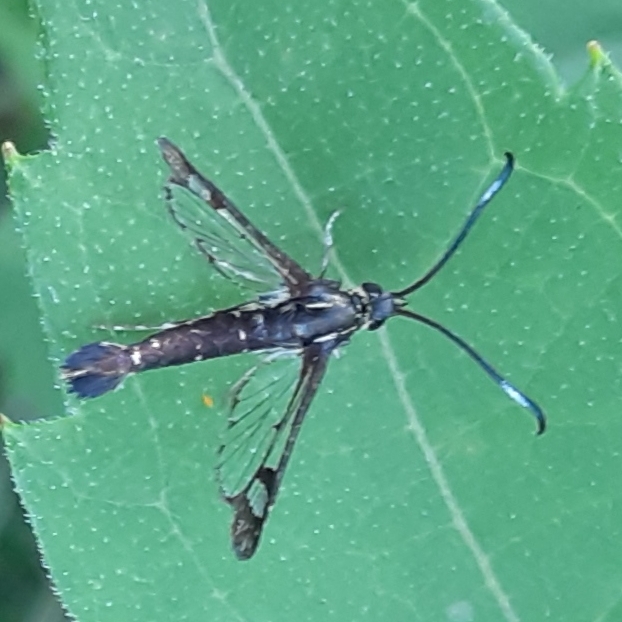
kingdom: Animalia
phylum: Arthropoda
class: Insecta
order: Lepidoptera
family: Sesiidae
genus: Carmenta
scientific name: Carmenta ithacae
